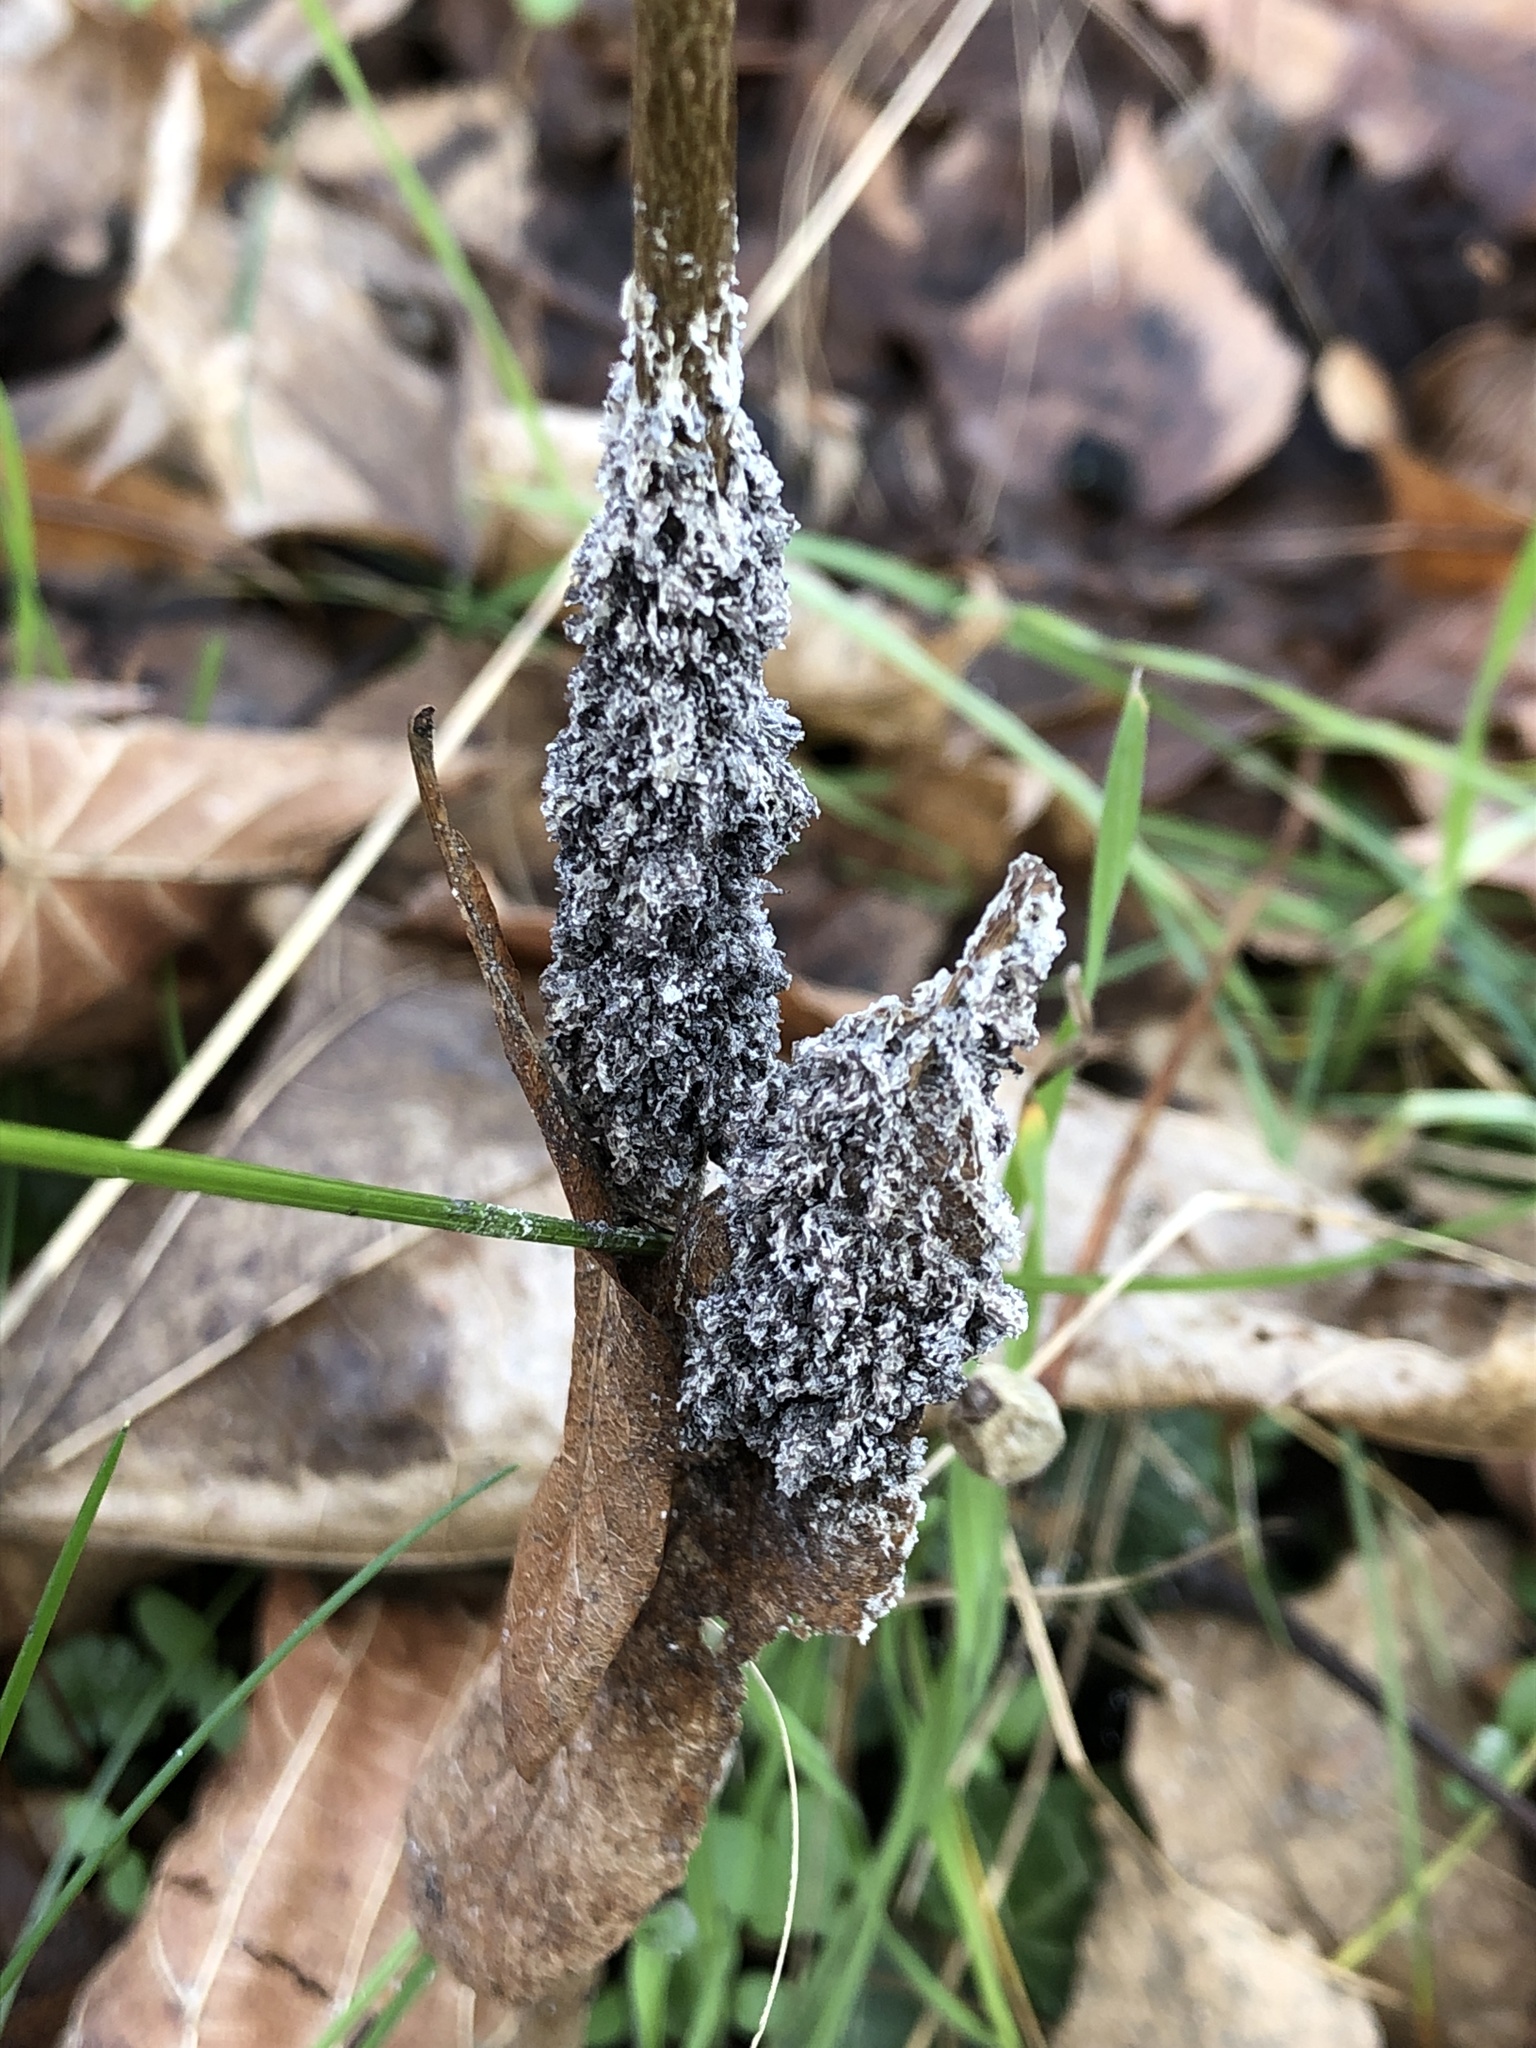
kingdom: Protozoa
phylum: Mycetozoa
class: Myxomycetes
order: Physarales
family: Physaraceae
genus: Didymium
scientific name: Didymium
